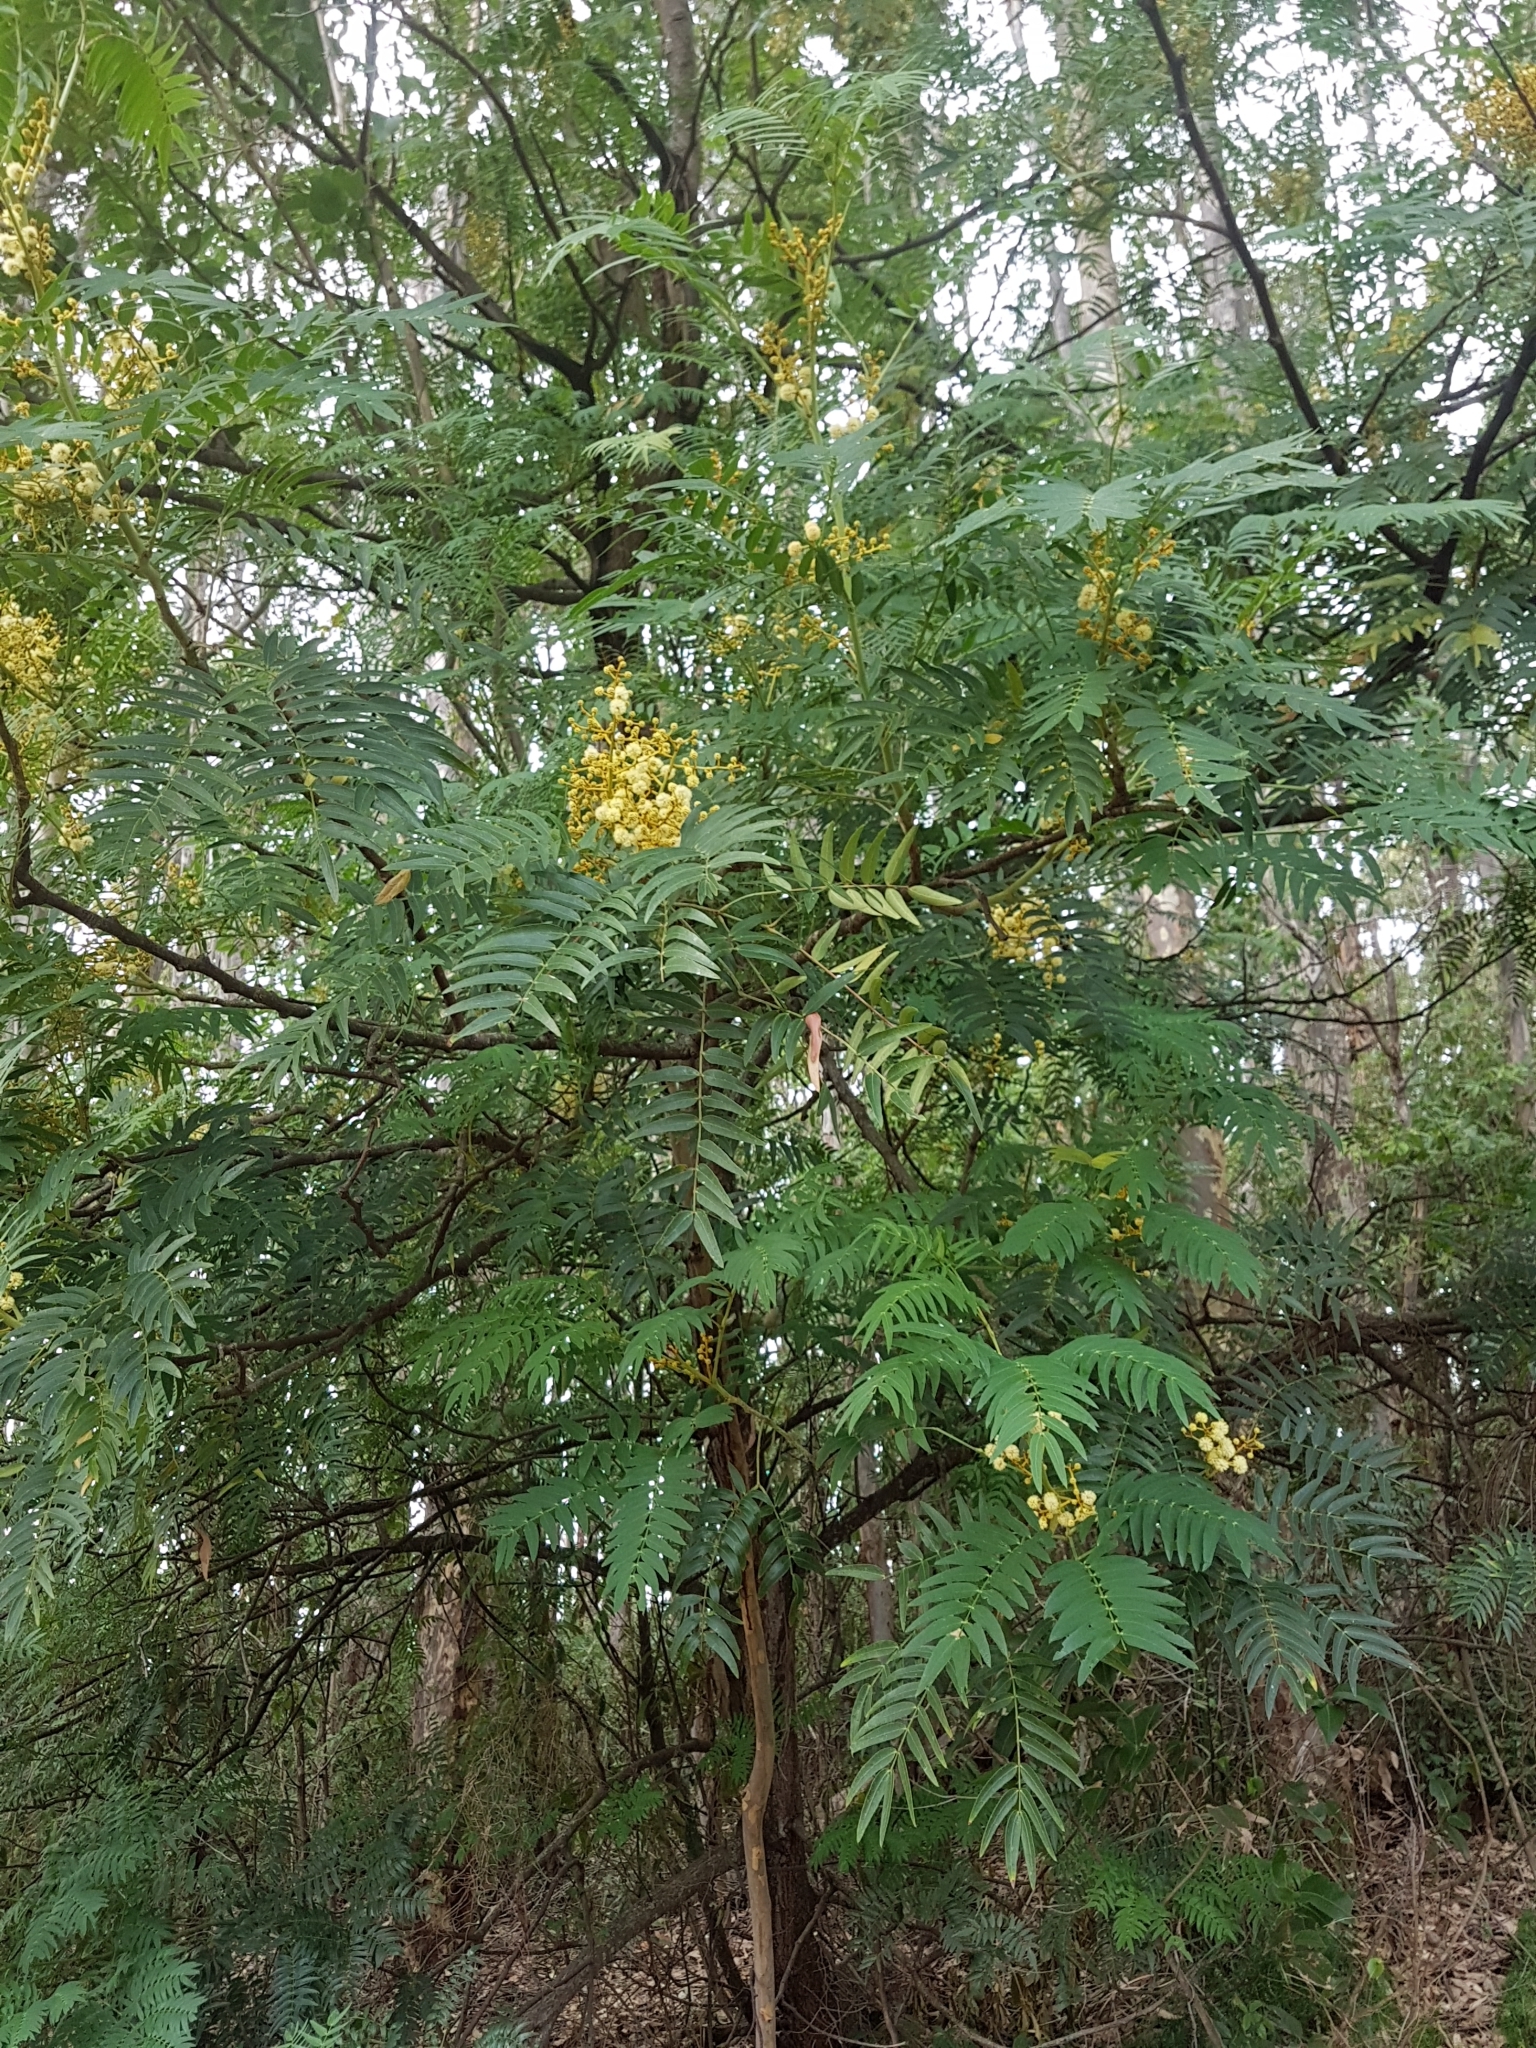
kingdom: Plantae
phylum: Tracheophyta
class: Magnoliopsida
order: Fabales
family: Fabaceae
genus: Acacia
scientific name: Acacia elata
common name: Cedar wattle
